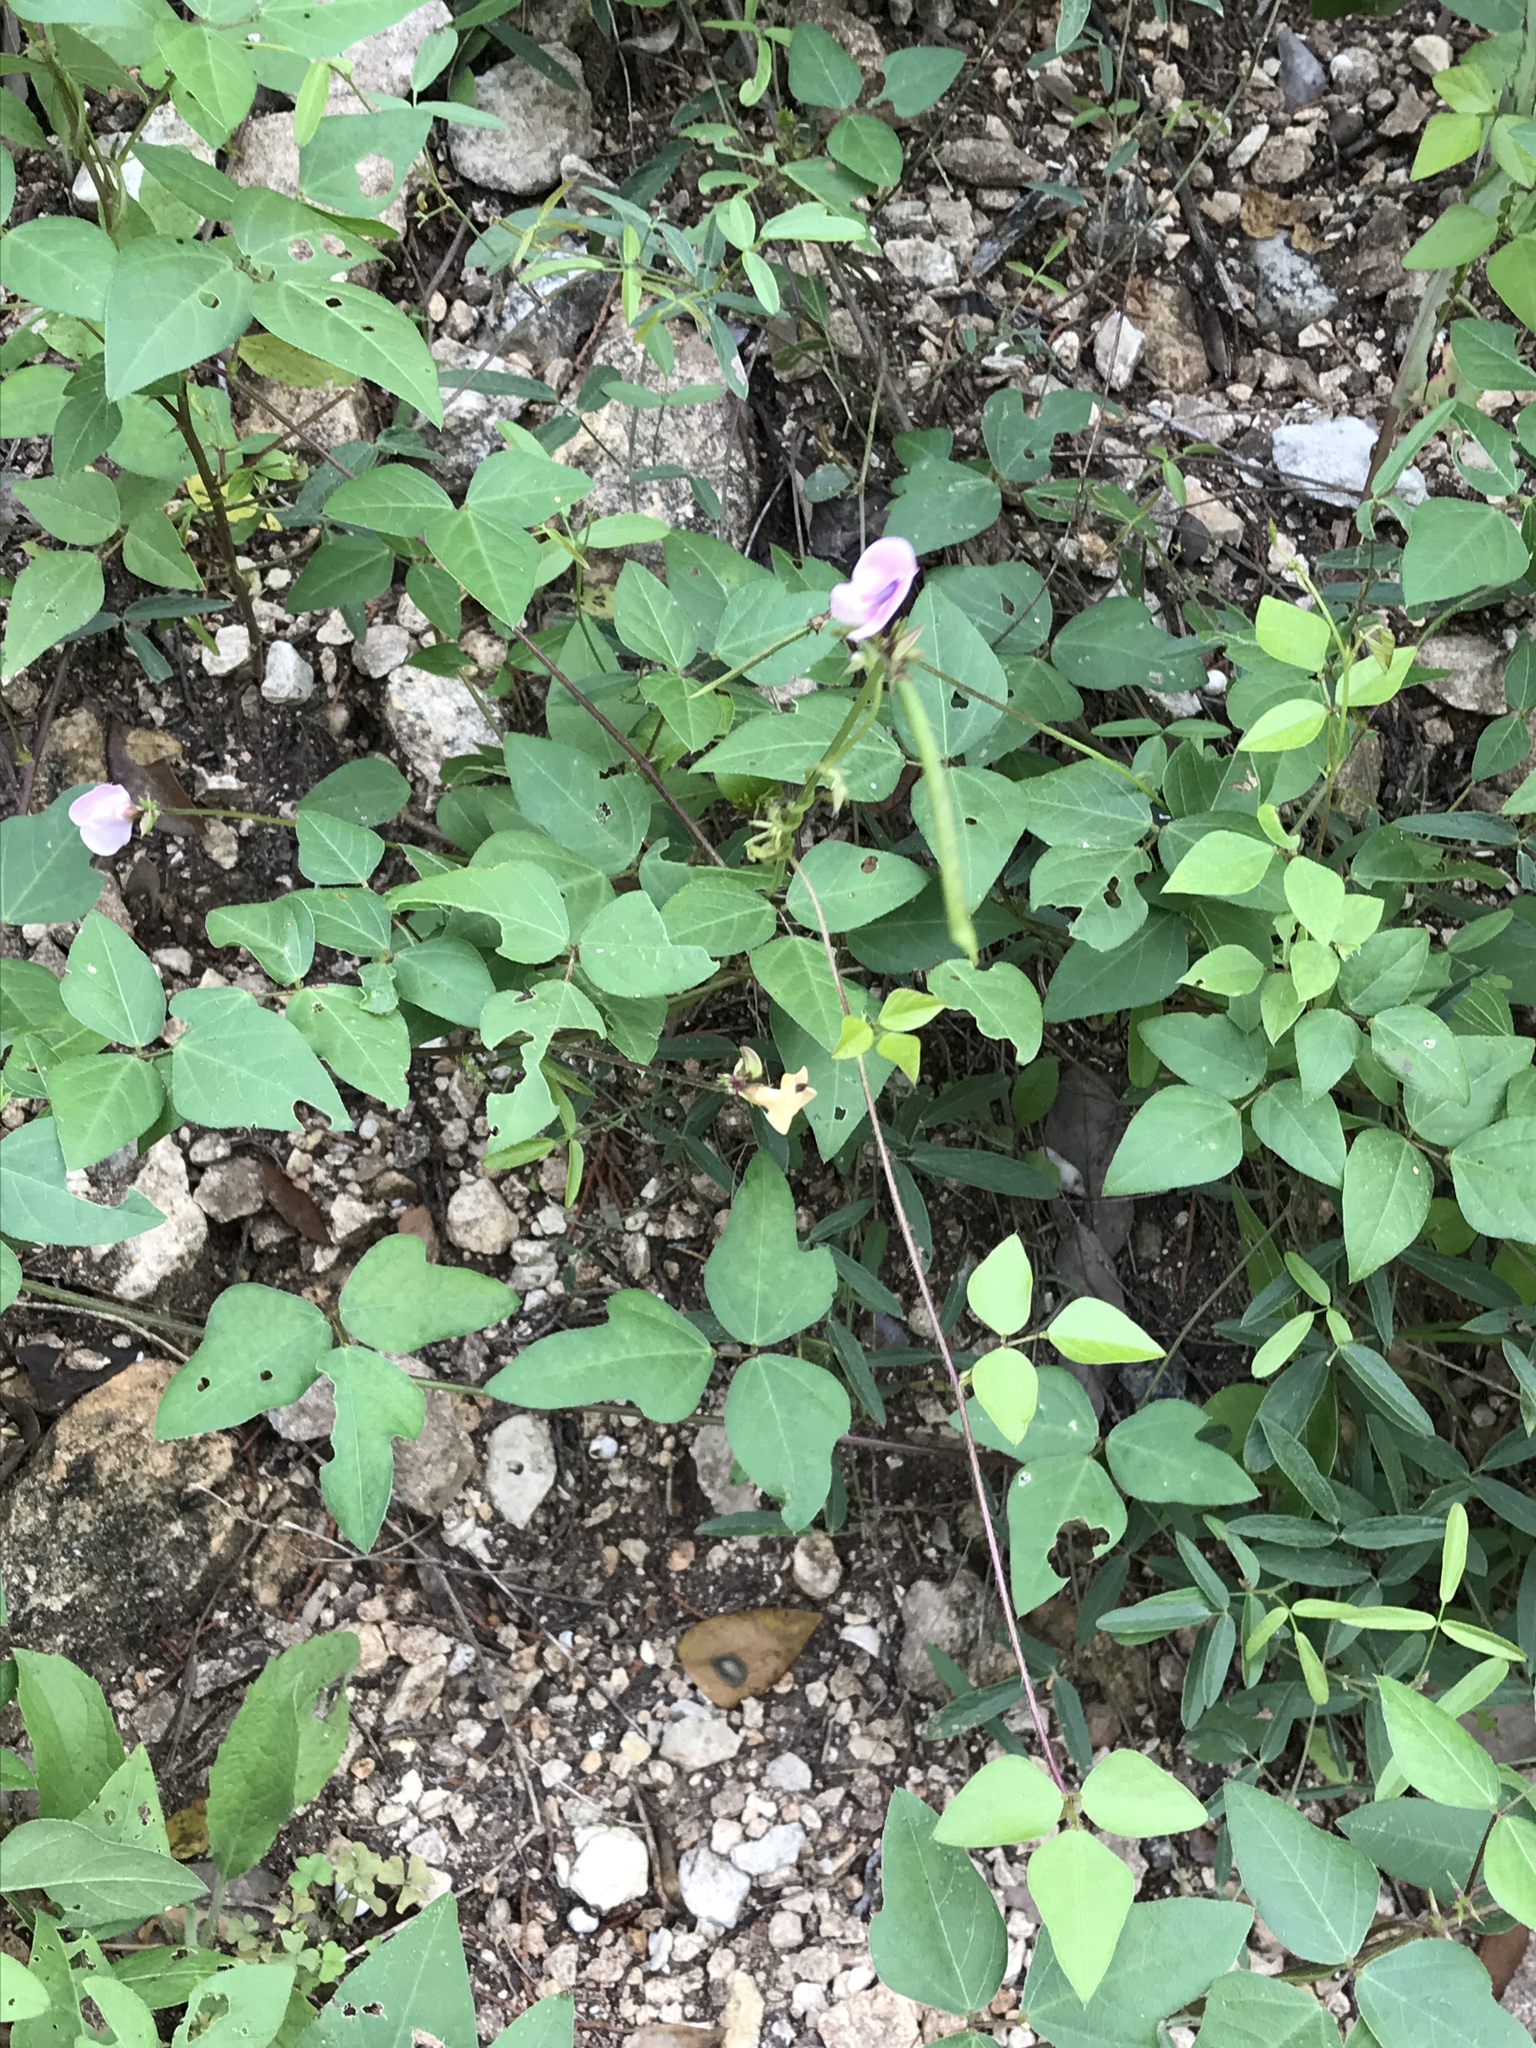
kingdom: Plantae
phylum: Tracheophyta
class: Magnoliopsida
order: Fabales
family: Fabaceae
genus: Strophostyles
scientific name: Strophostyles helvola
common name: Trailing wild bean
